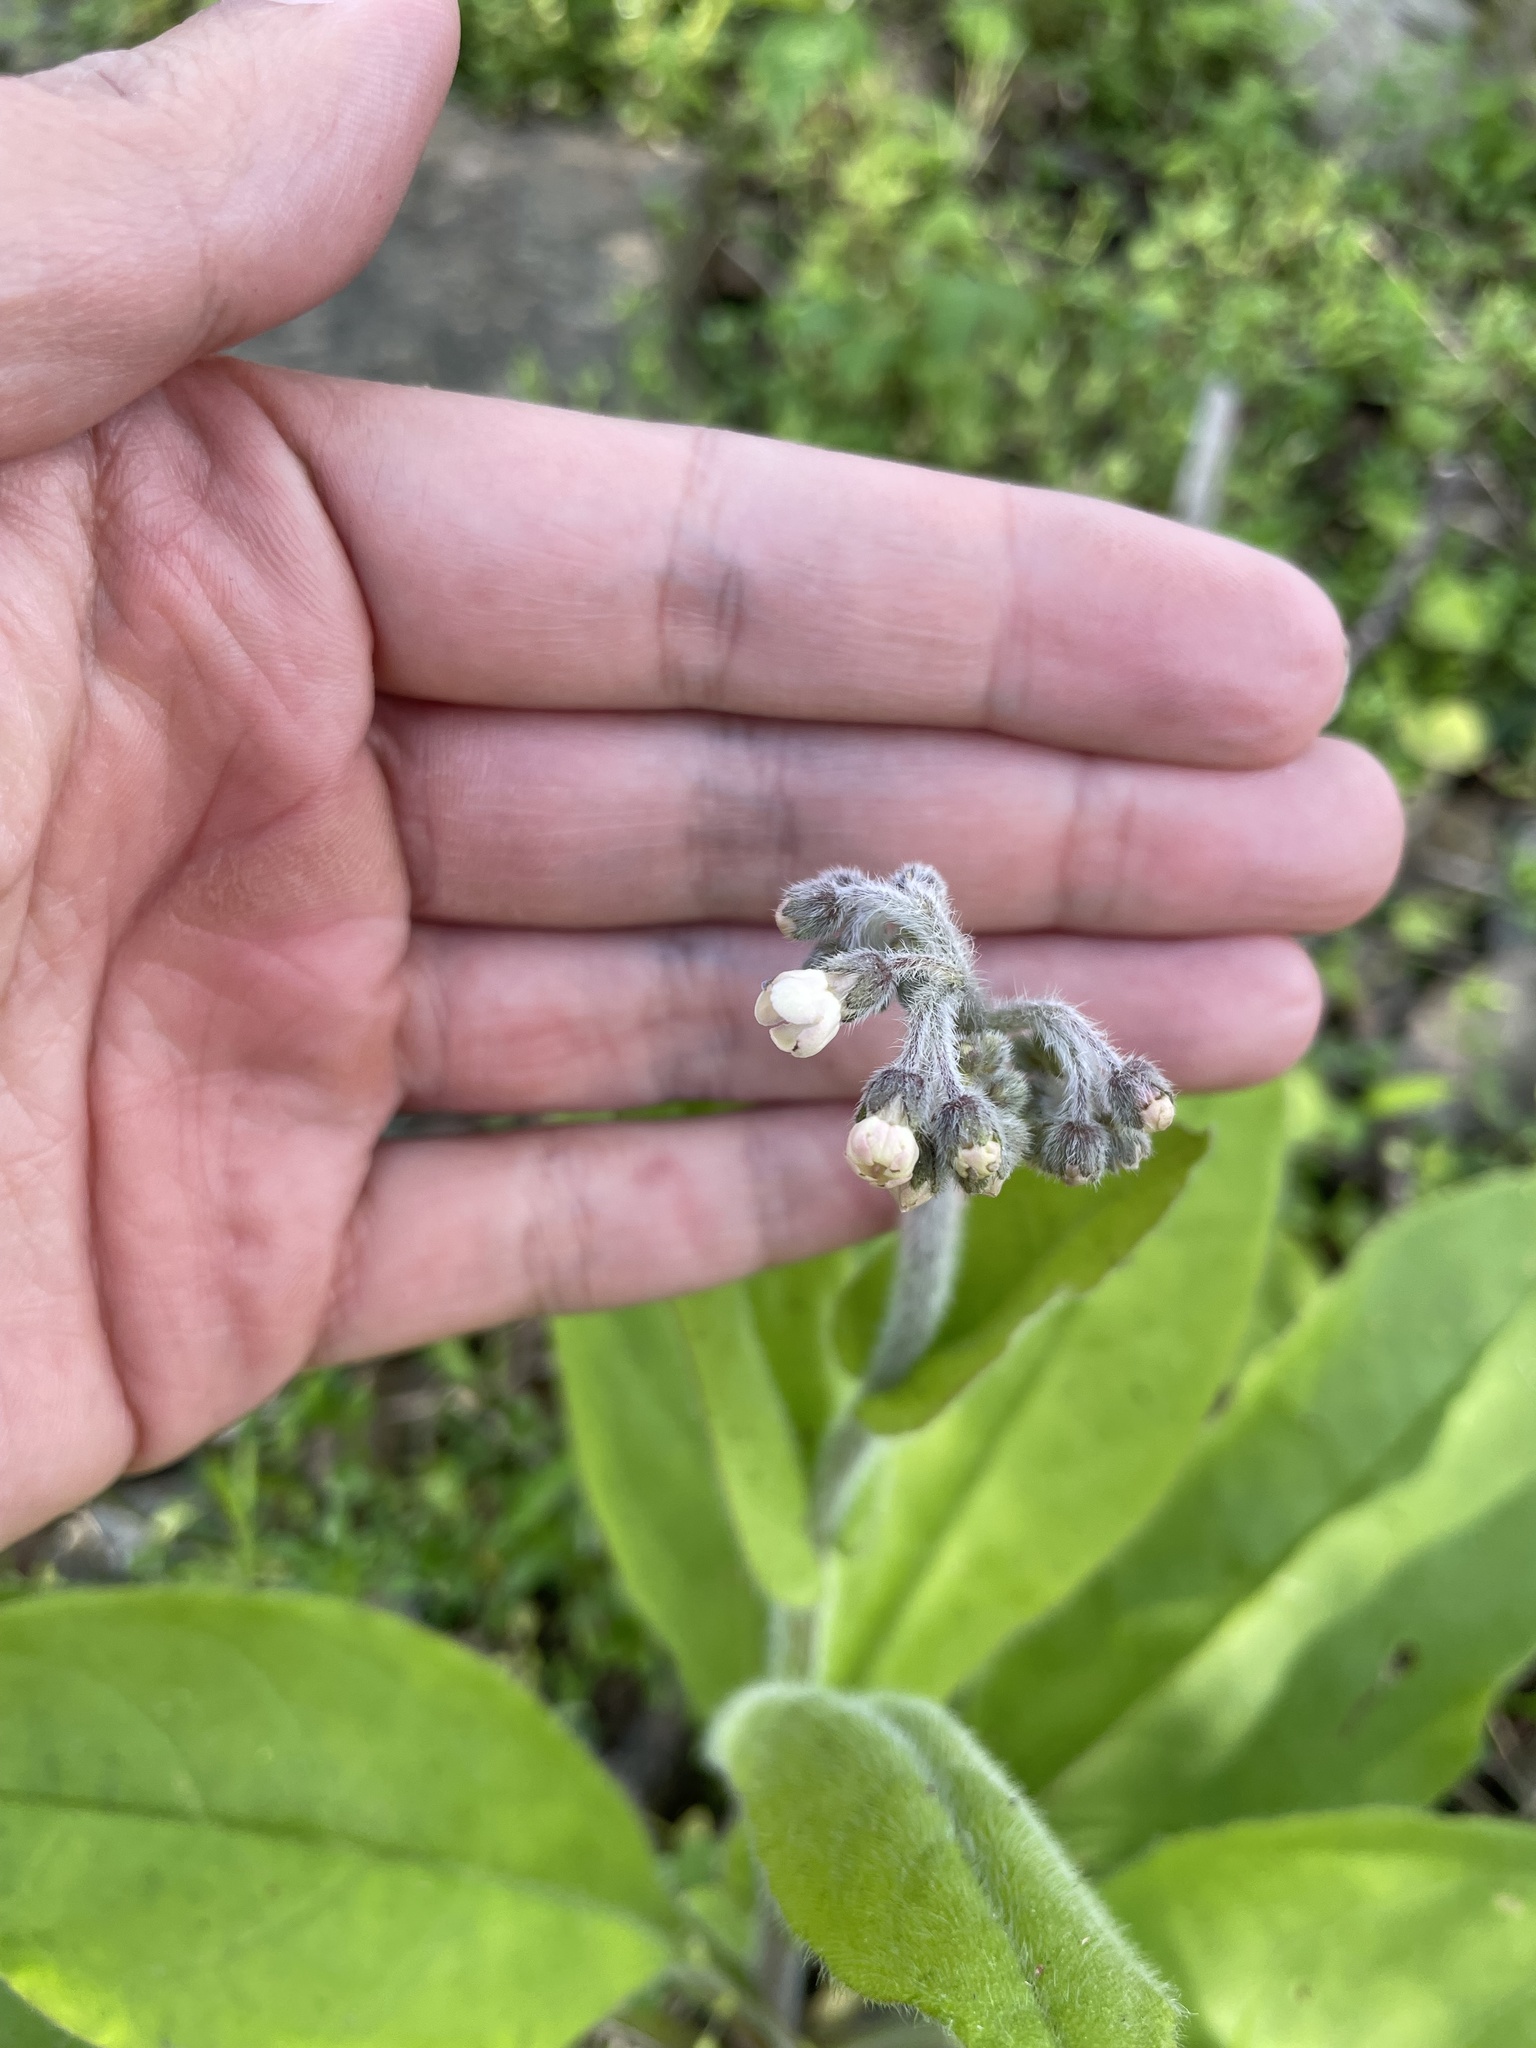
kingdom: Plantae
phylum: Tracheophyta
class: Magnoliopsida
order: Boraginales
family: Boraginaceae
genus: Andersonglossum
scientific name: Andersonglossum virginianum
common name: Wild comfrey
